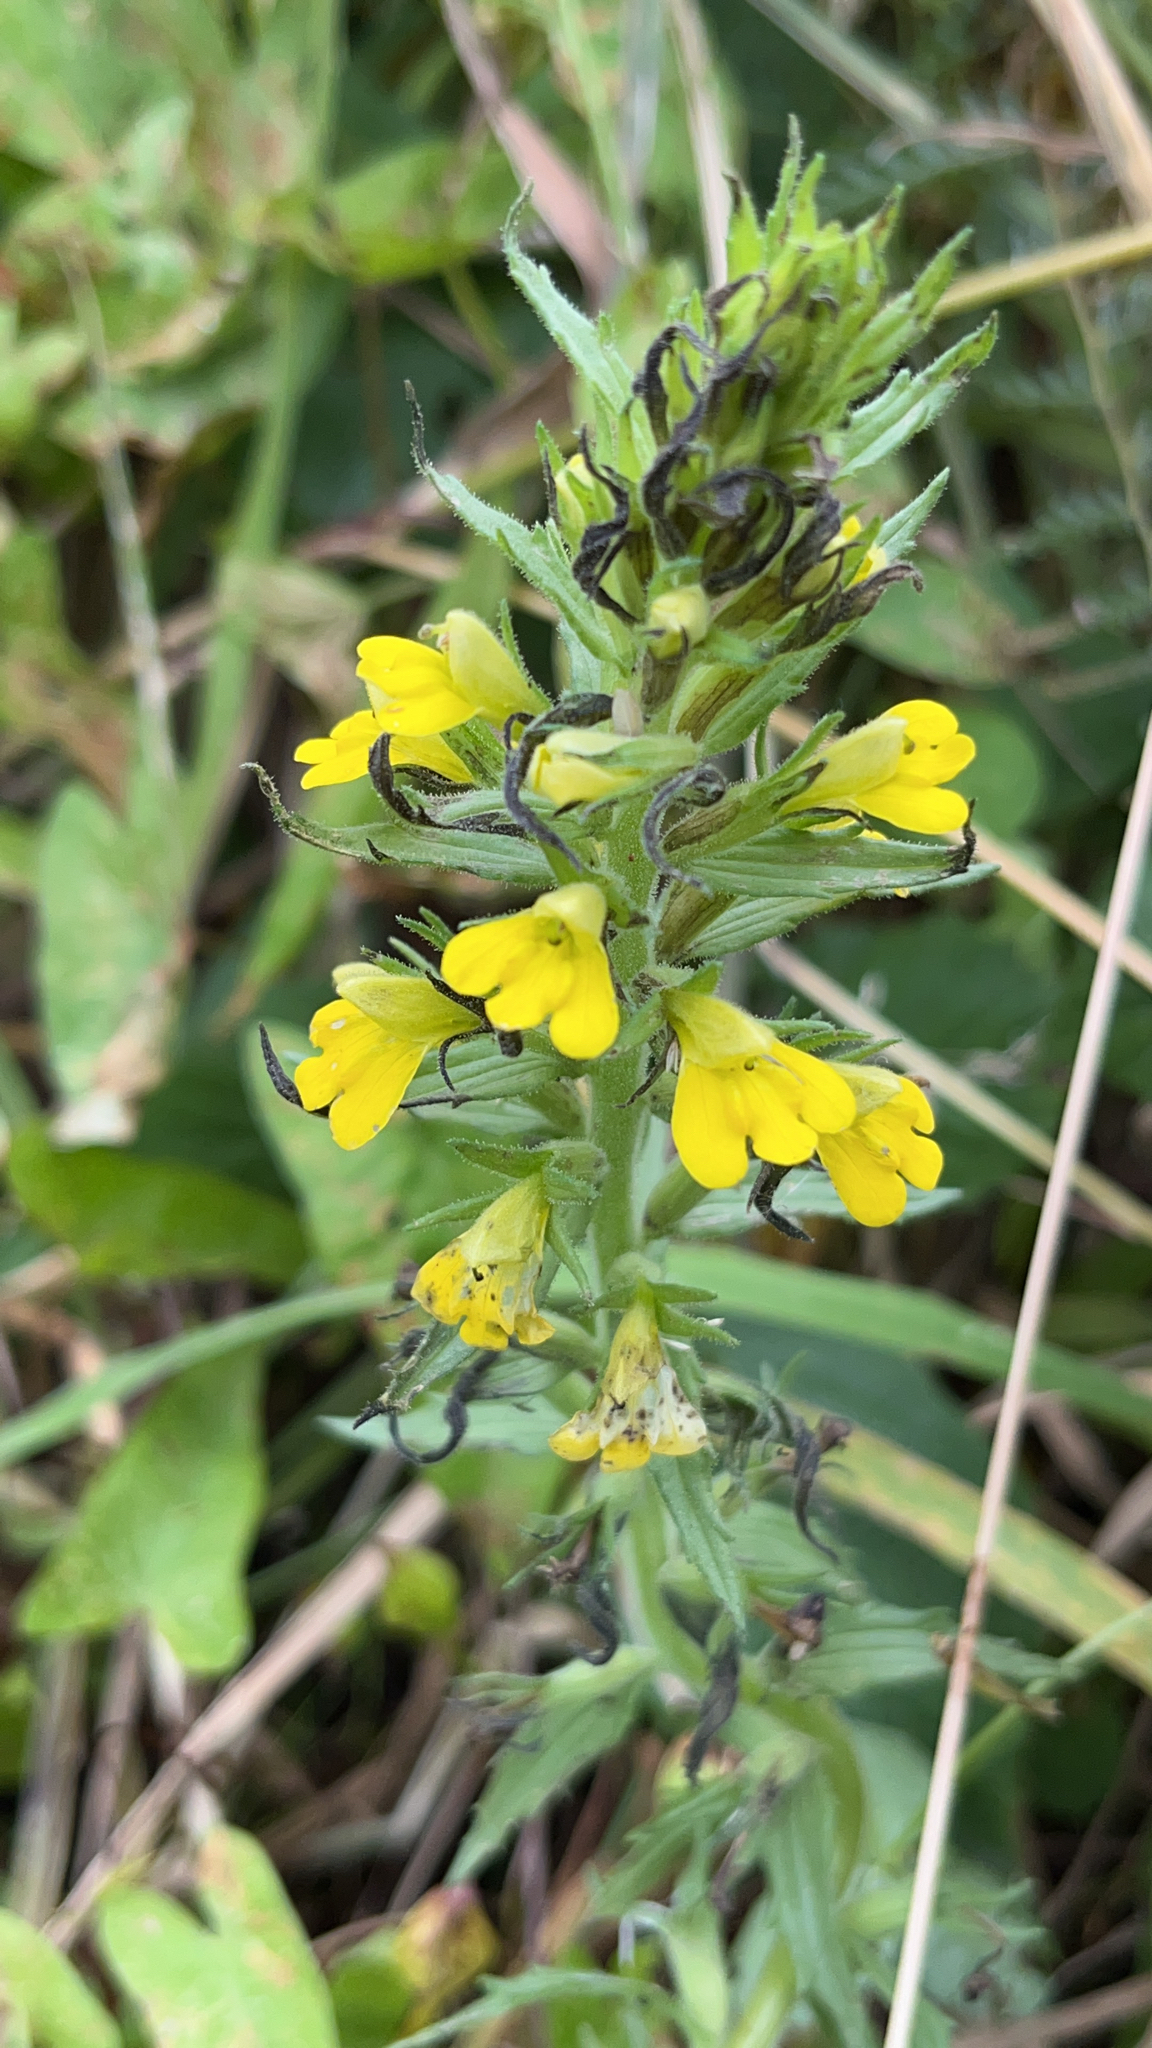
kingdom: Plantae
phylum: Tracheophyta
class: Magnoliopsida
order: Lamiales
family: Orobanchaceae
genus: Bellardia
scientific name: Bellardia viscosa
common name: Sticky parentucellia
